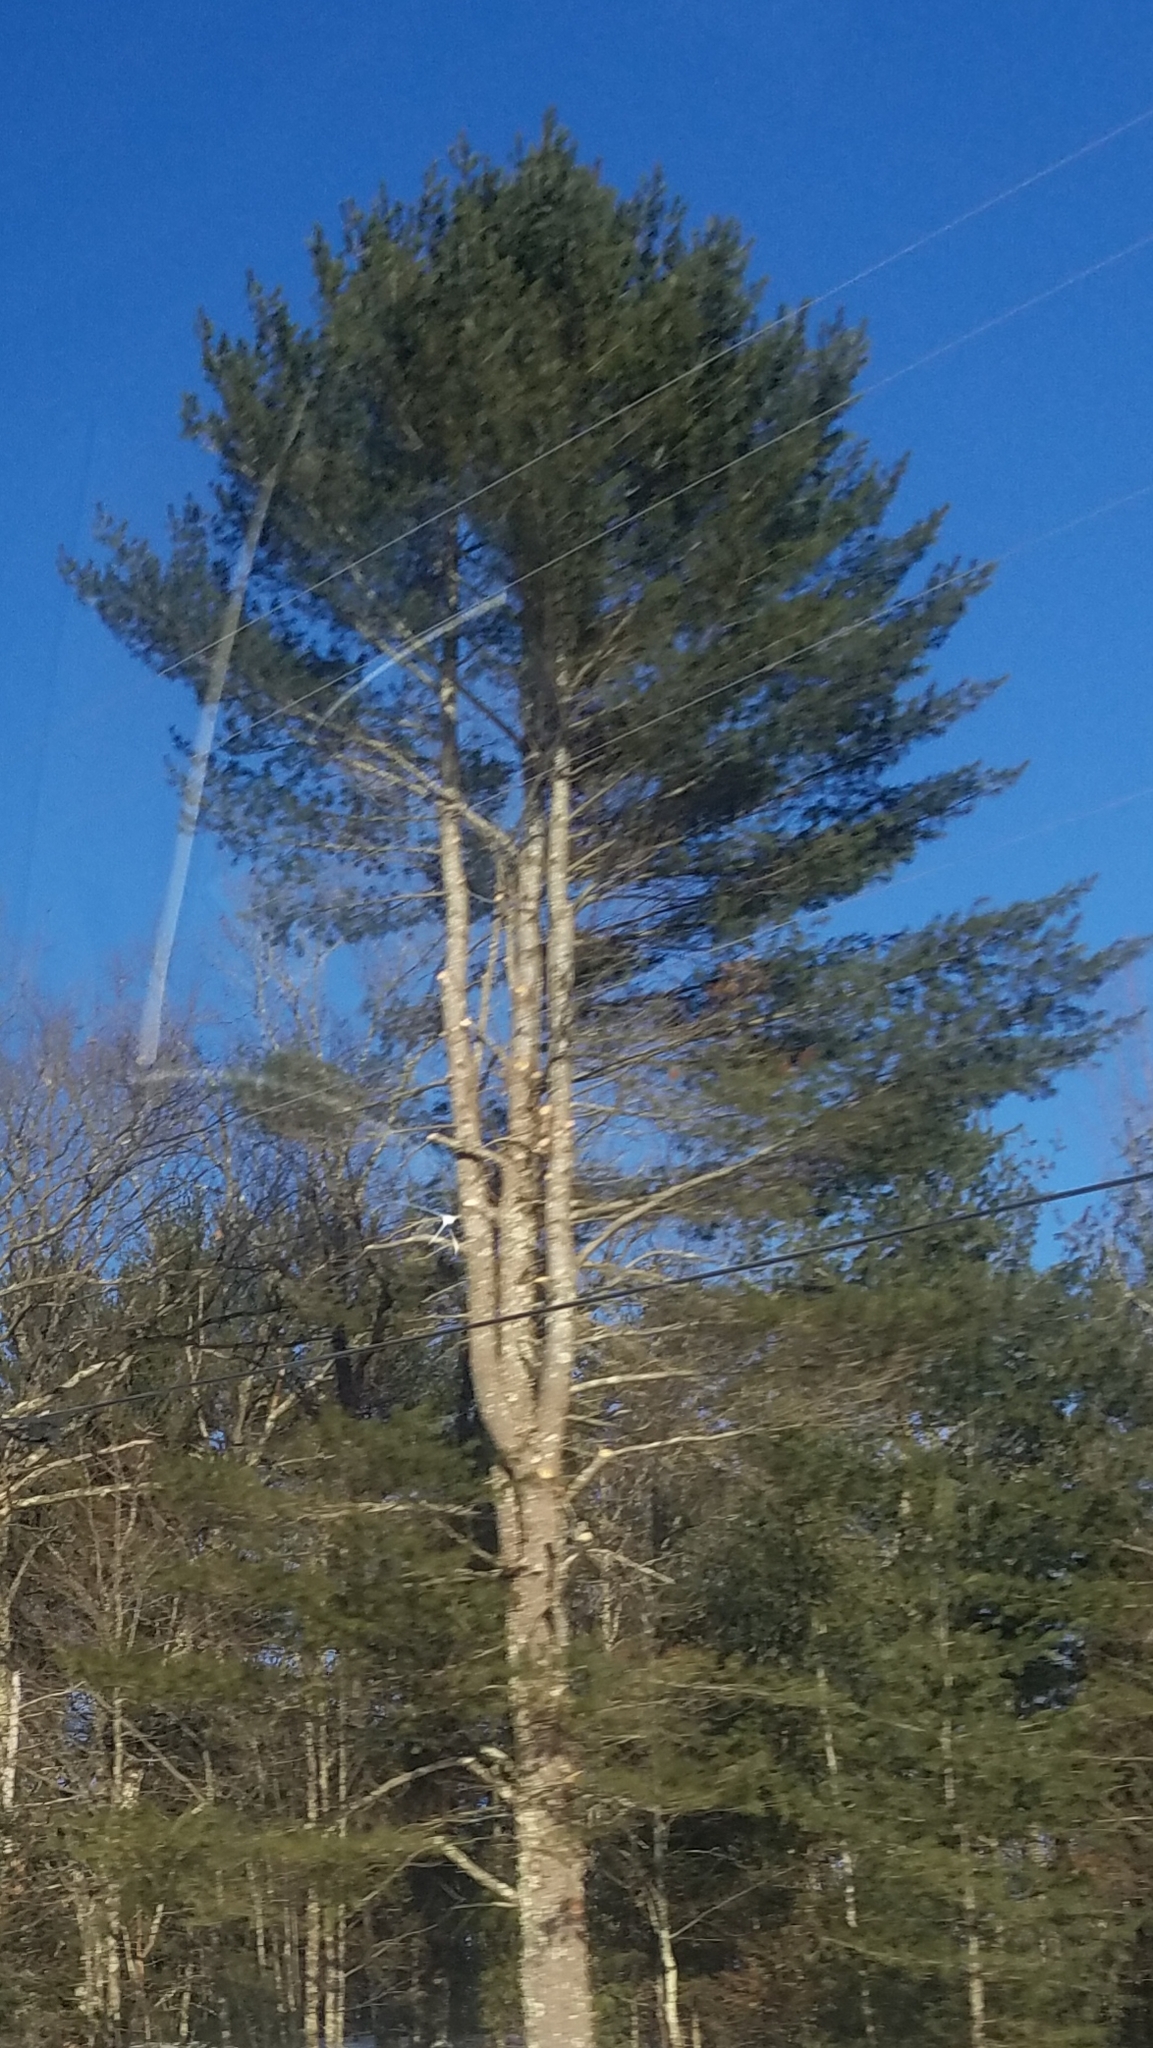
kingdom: Plantae
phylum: Tracheophyta
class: Pinopsida
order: Pinales
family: Pinaceae
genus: Pinus
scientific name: Pinus strobus
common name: Weymouth pine
